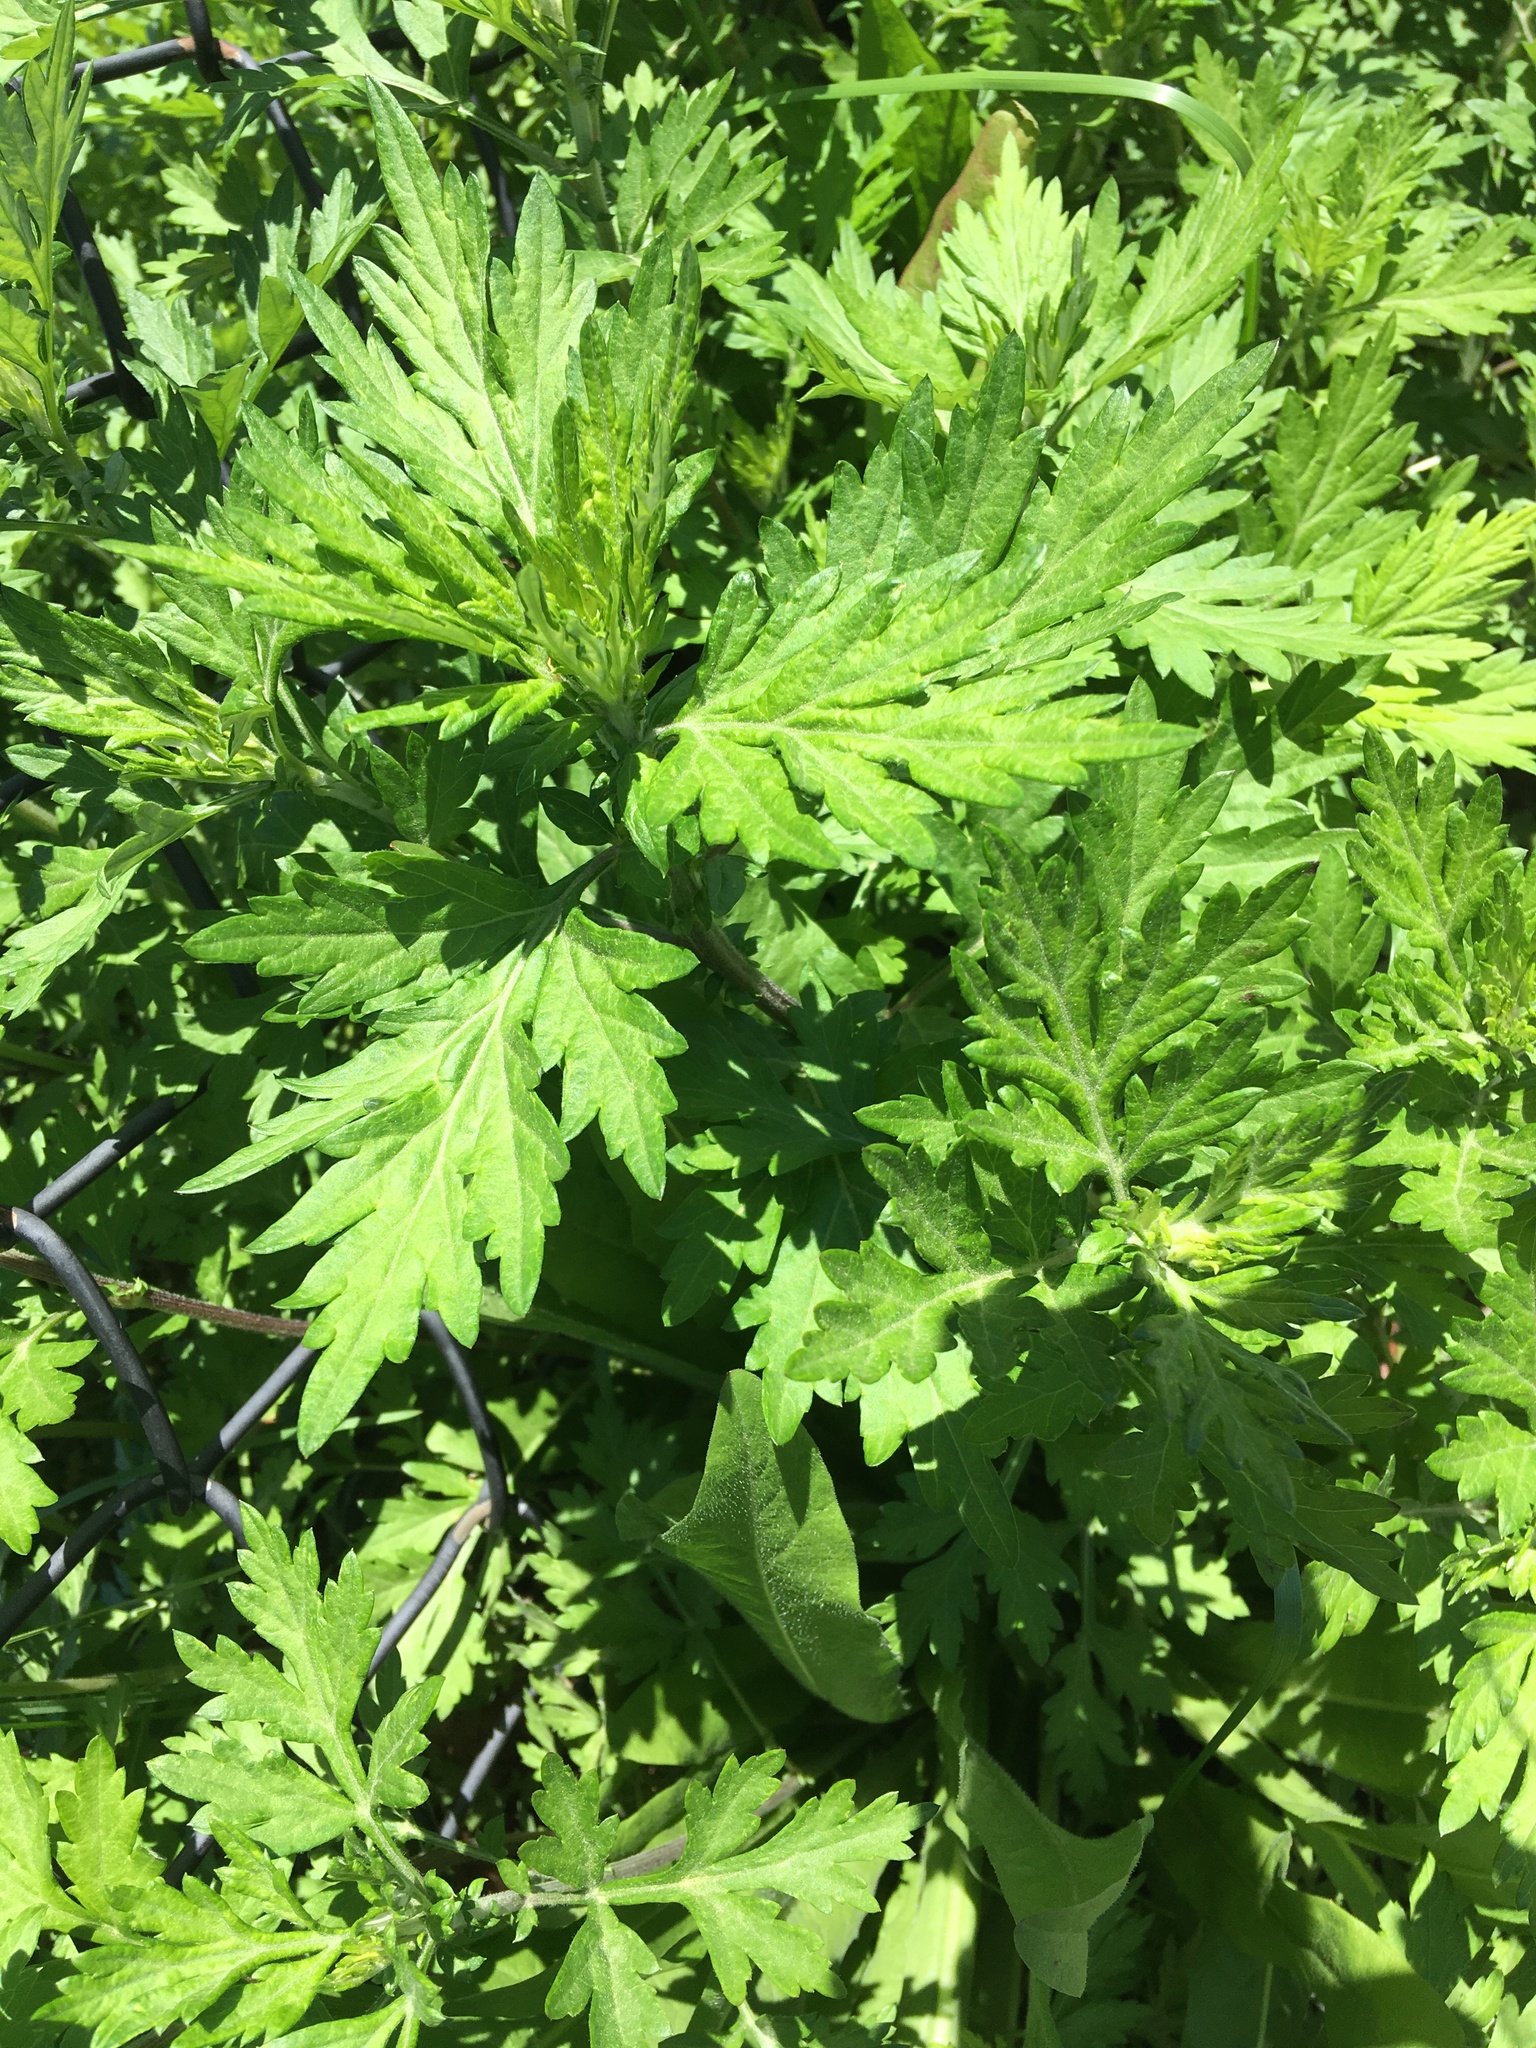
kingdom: Plantae
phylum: Tracheophyta
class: Magnoliopsida
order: Asterales
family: Asteraceae
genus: Artemisia
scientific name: Artemisia vulgaris
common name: Mugwort
